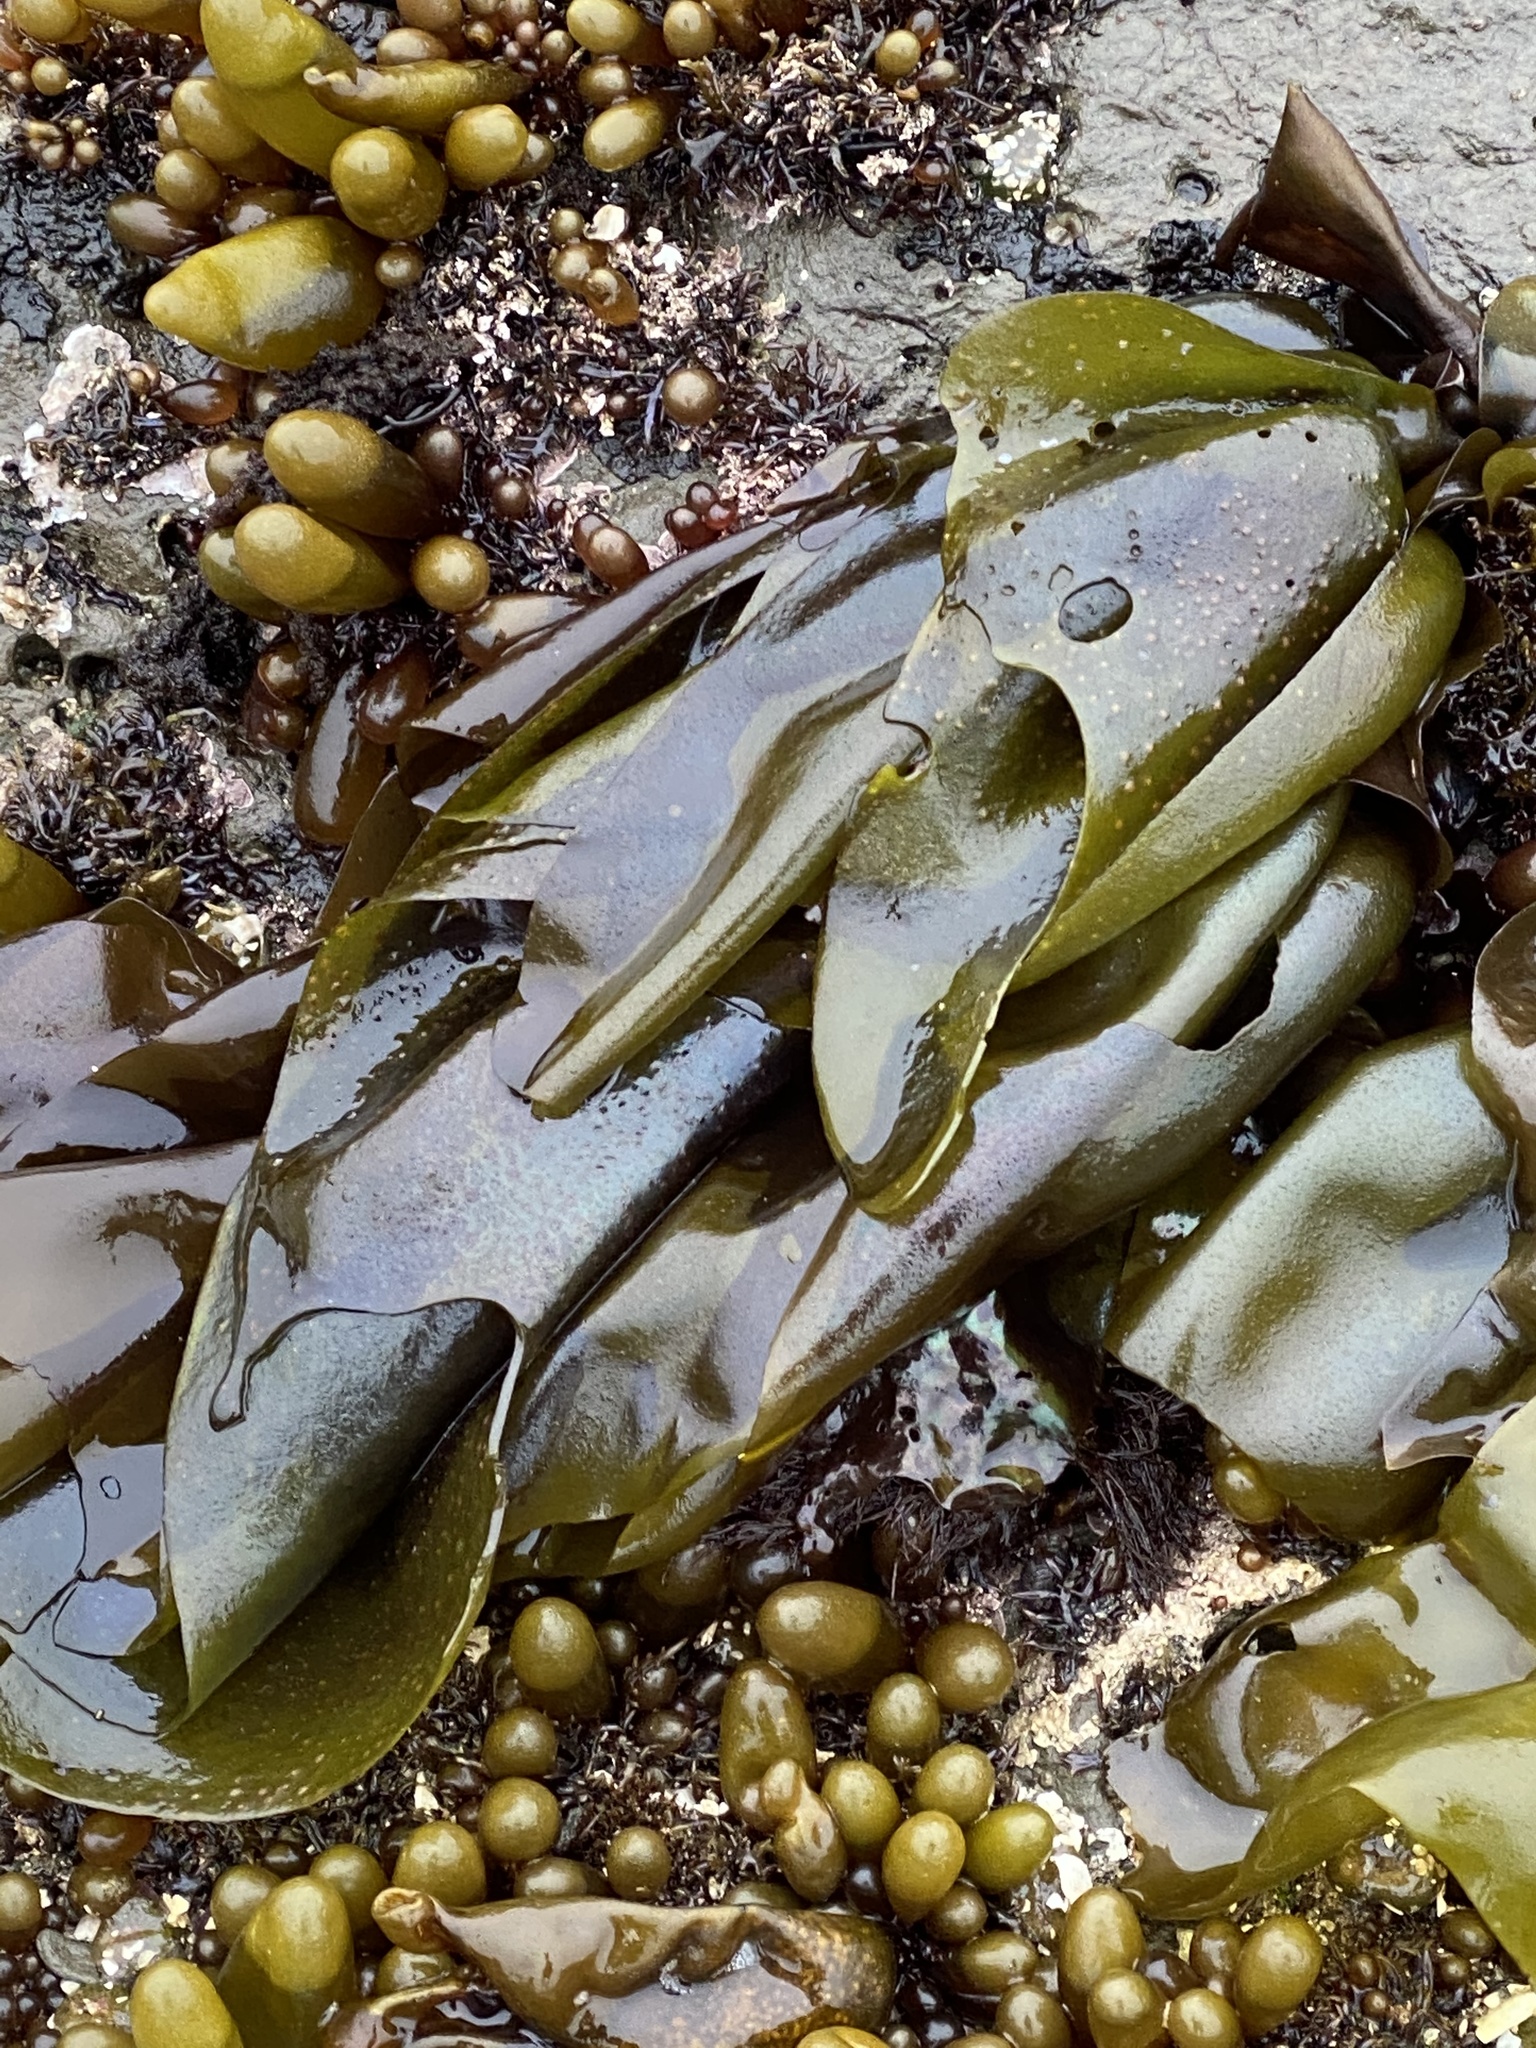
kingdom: Plantae
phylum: Rhodophyta
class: Florideophyceae
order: Gigartinales
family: Gigartinaceae
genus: Mazzaella
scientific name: Mazzaella flaccida
